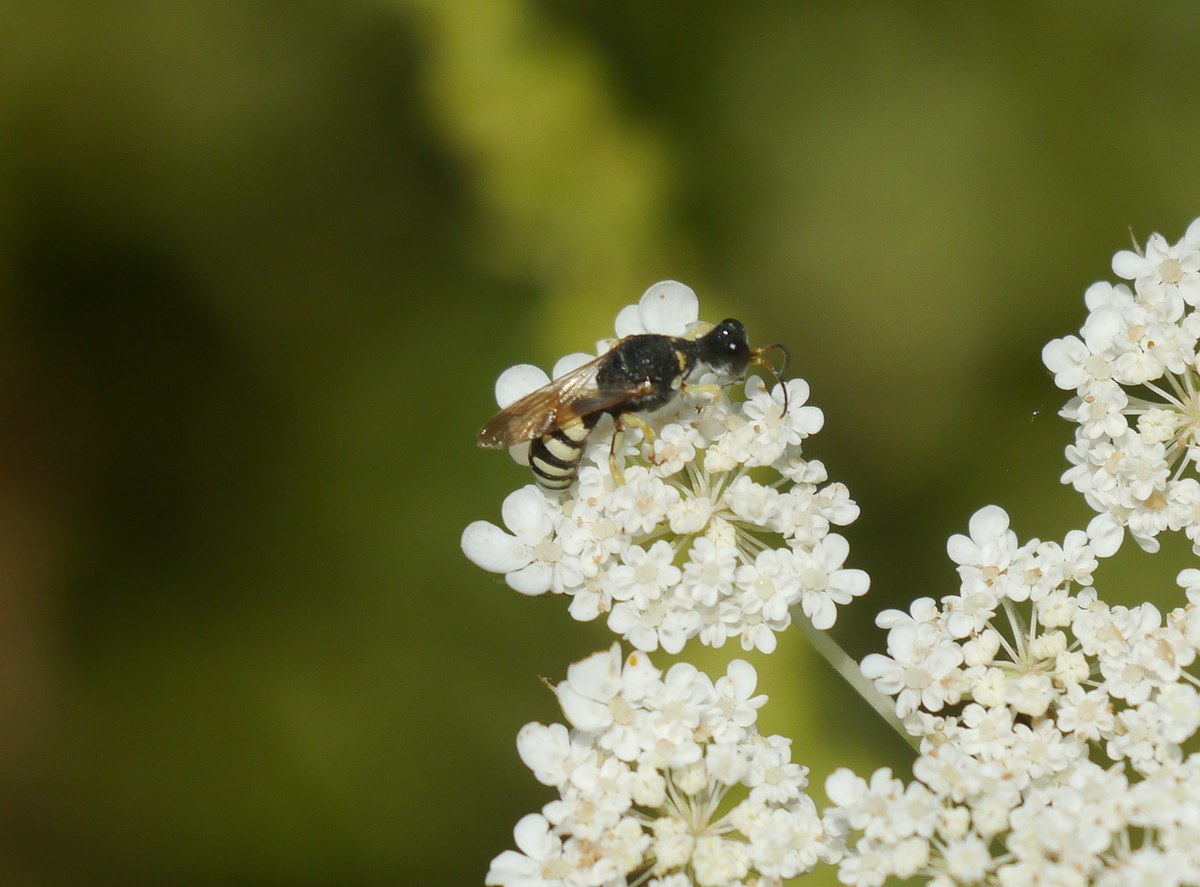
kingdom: Animalia
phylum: Arthropoda
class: Insecta
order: Hymenoptera
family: Crabronidae
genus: Lestica
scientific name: Lestica clypeata
